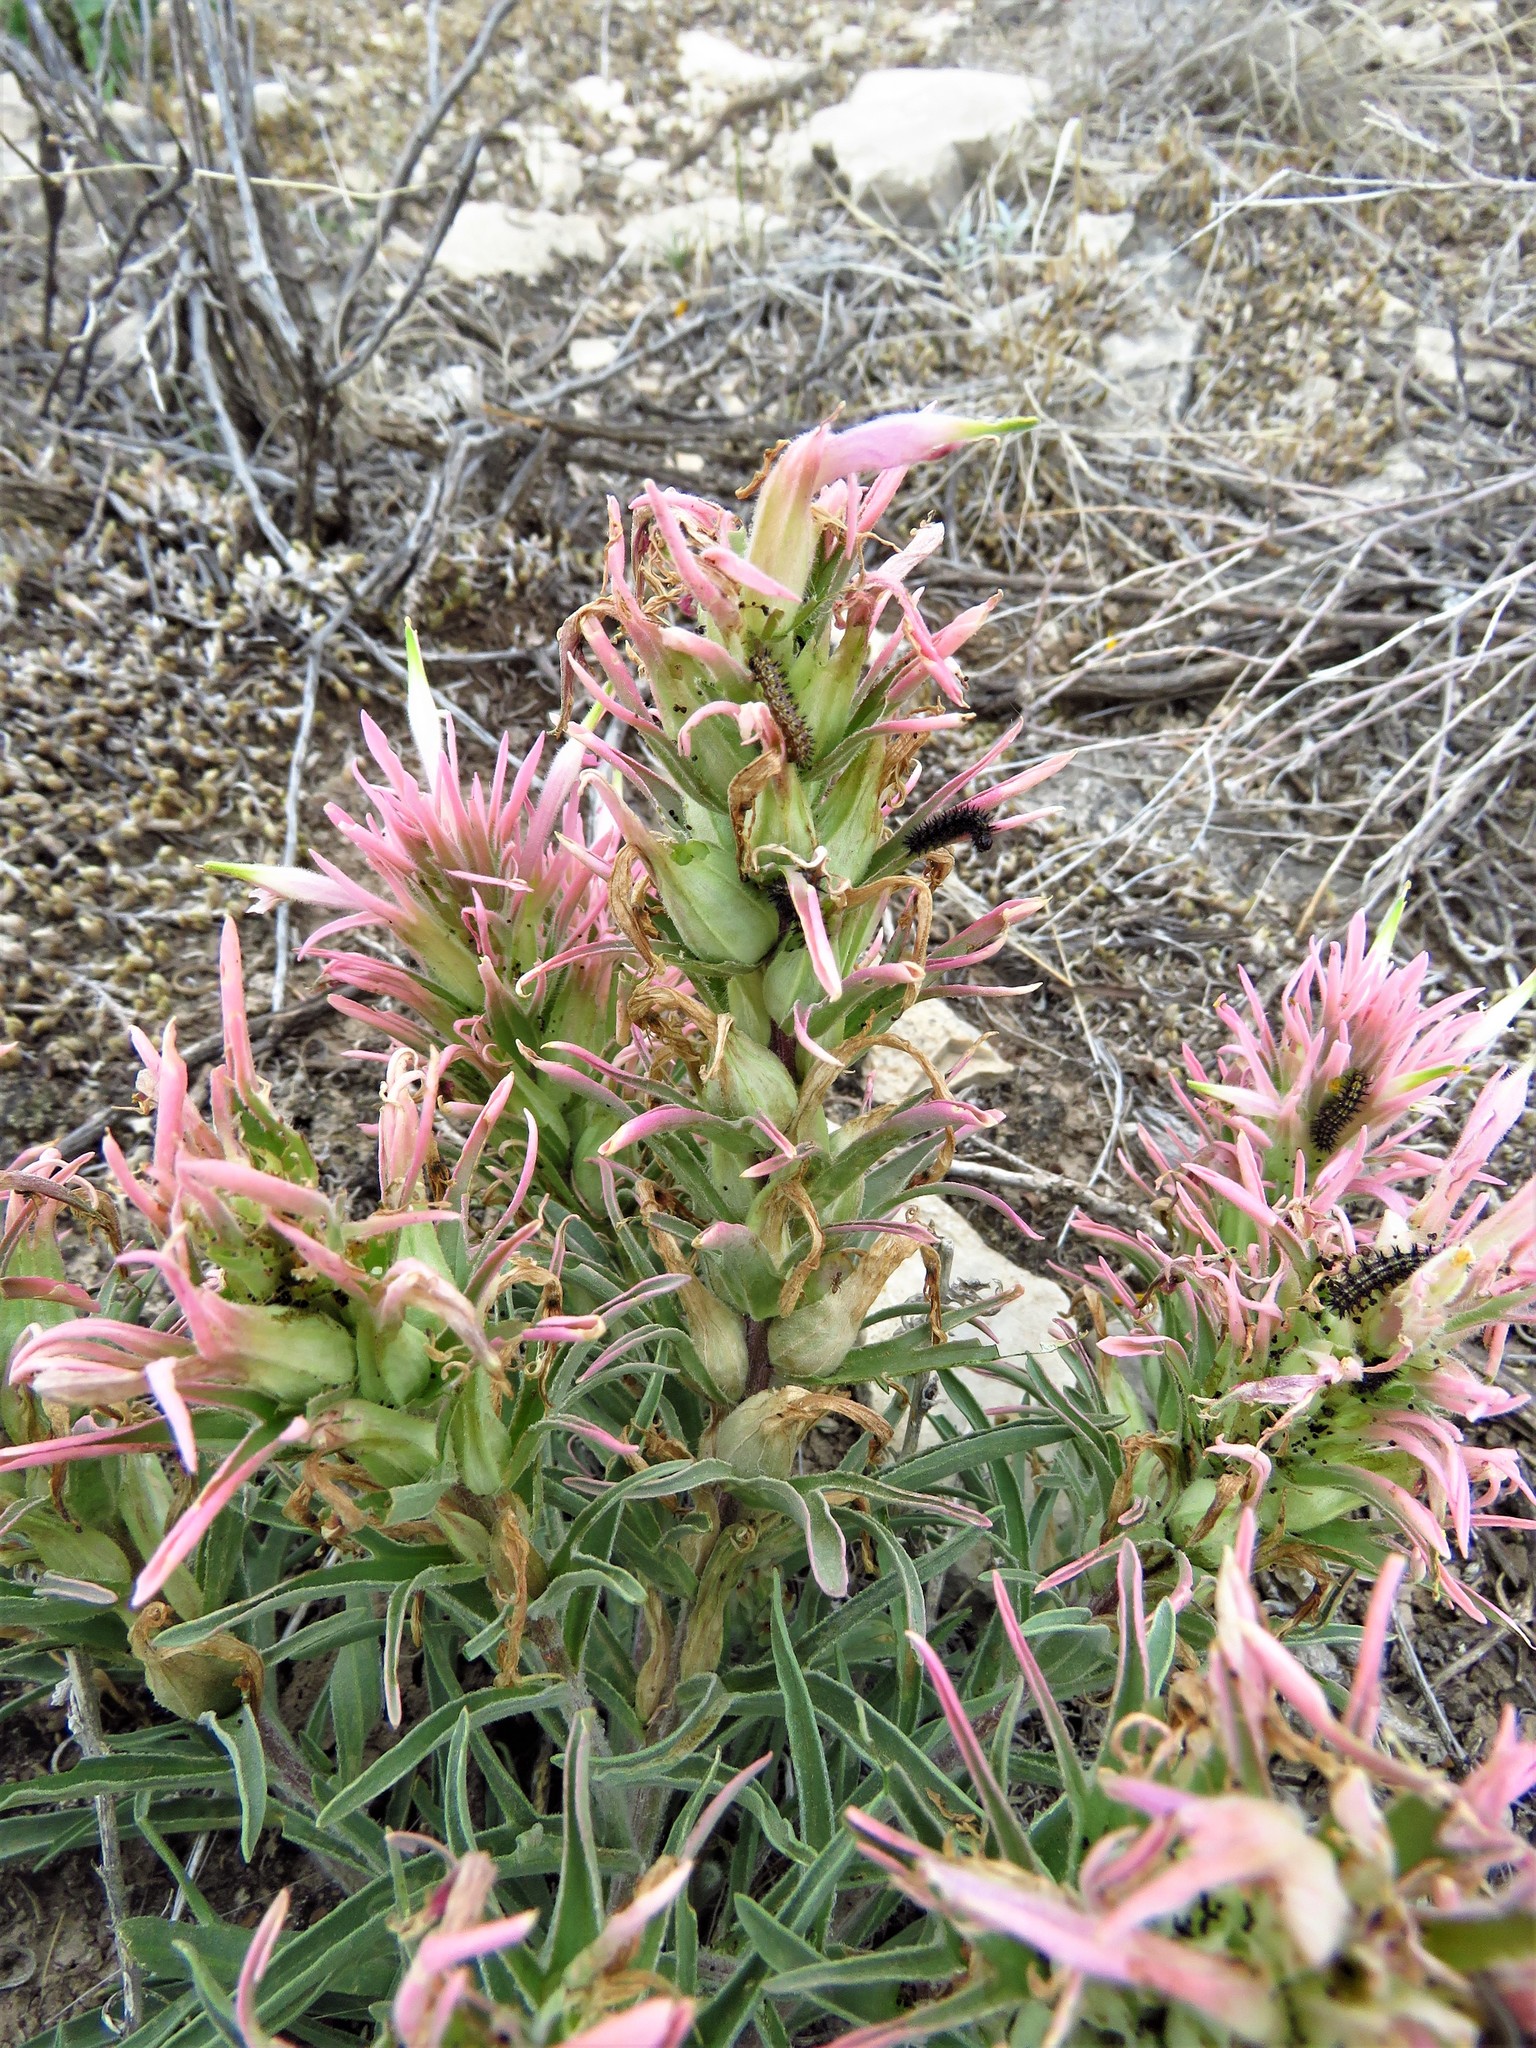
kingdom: Plantae
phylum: Tracheophyta
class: Magnoliopsida
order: Lamiales
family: Orobanchaceae
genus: Castilleja
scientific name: Castilleja sessiliflora
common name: Downy paintbrush
